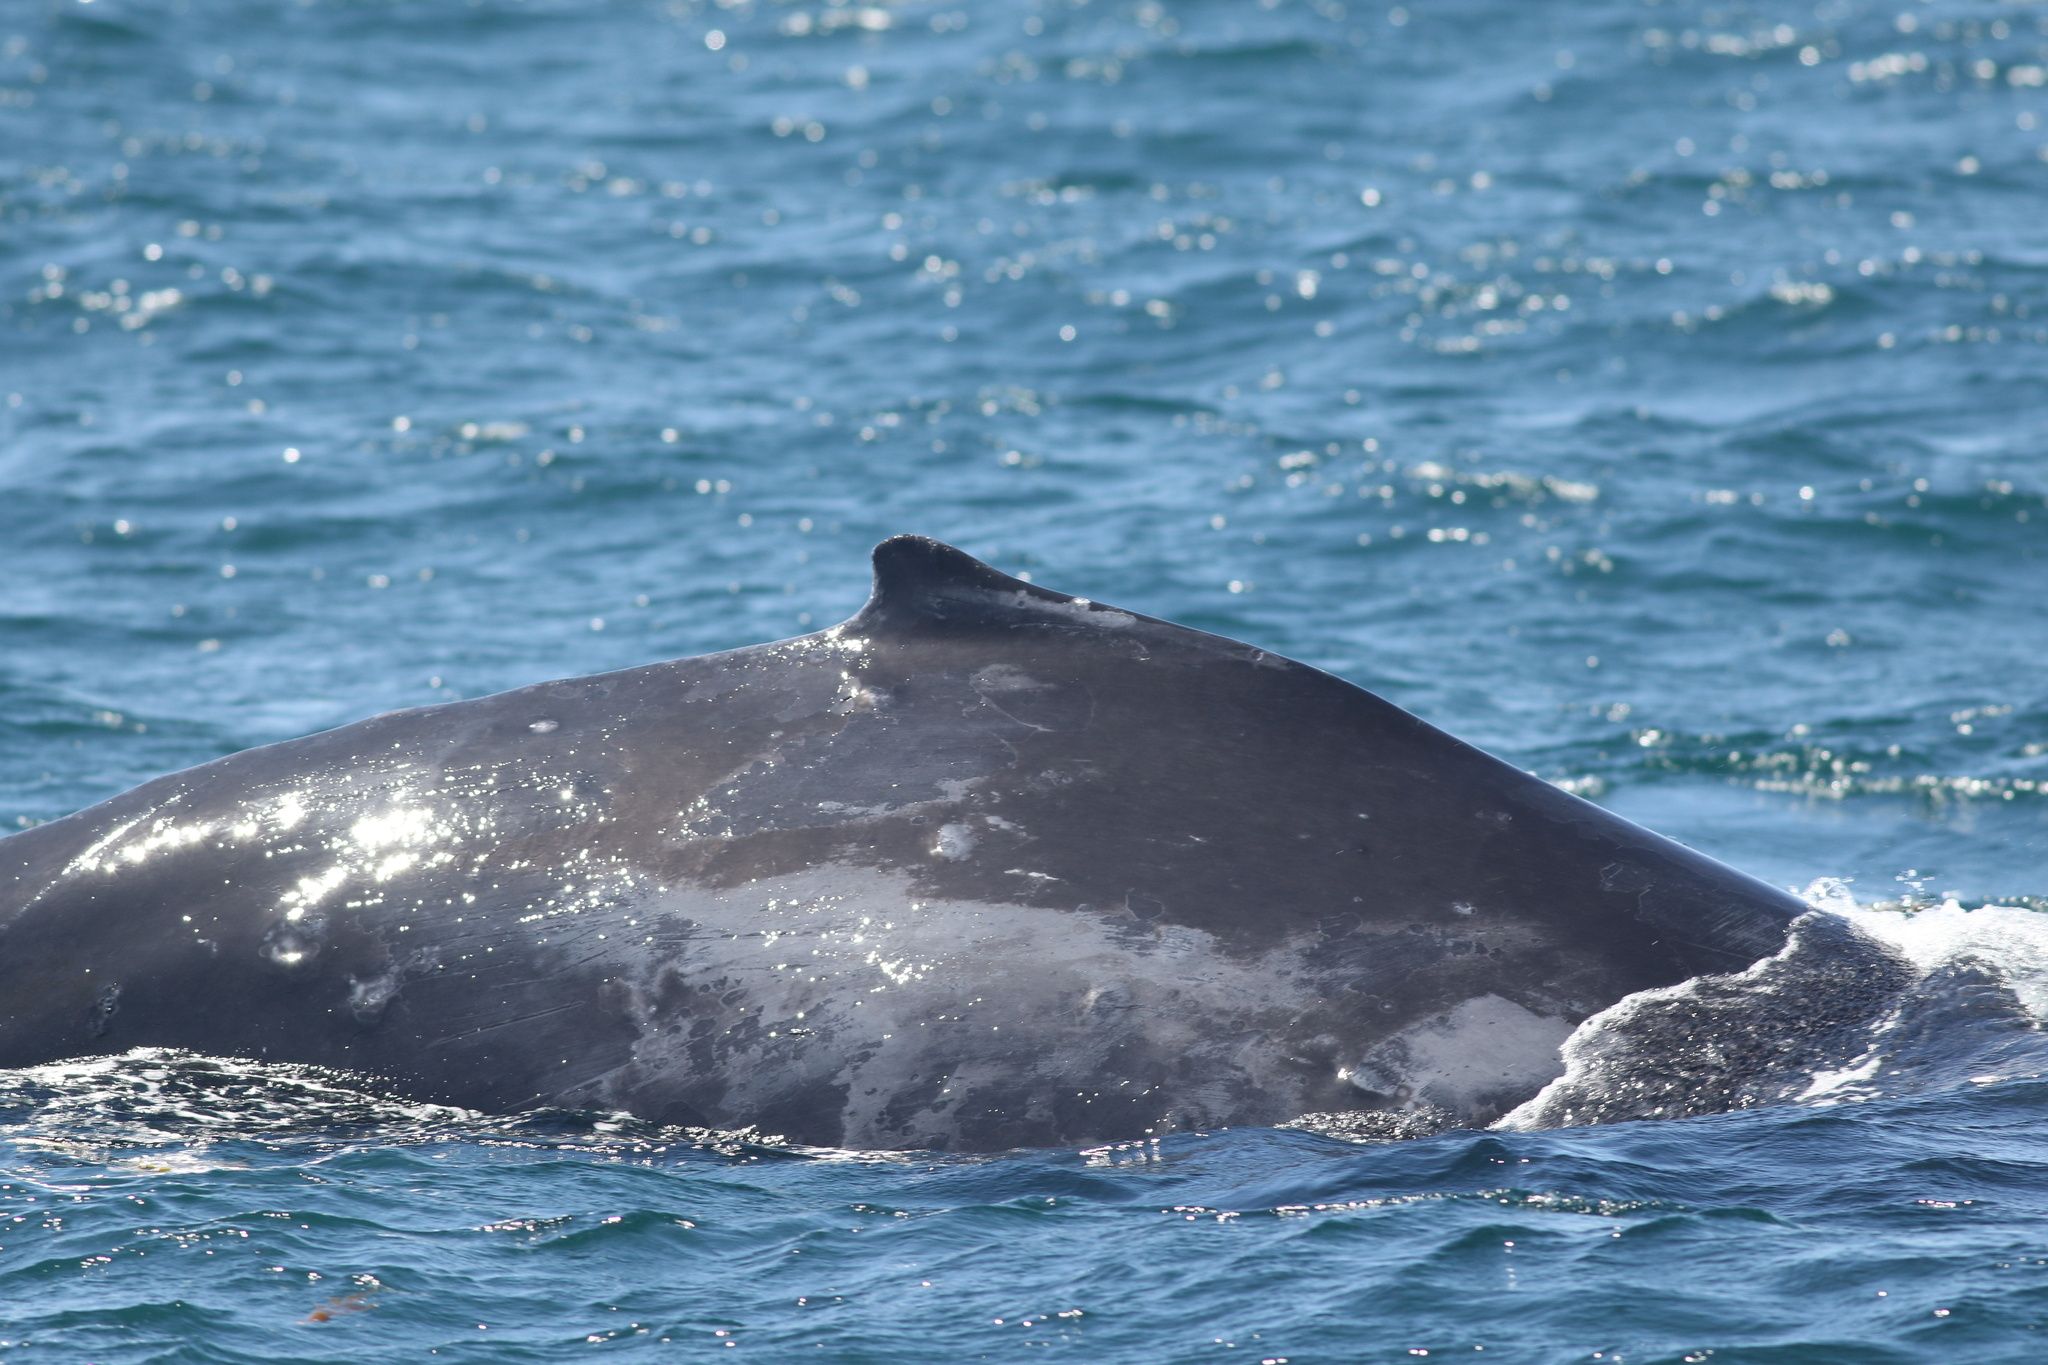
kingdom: Animalia
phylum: Chordata
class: Mammalia
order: Cetacea
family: Balaenopteridae
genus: Megaptera
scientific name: Megaptera novaeangliae
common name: Humpback whale
